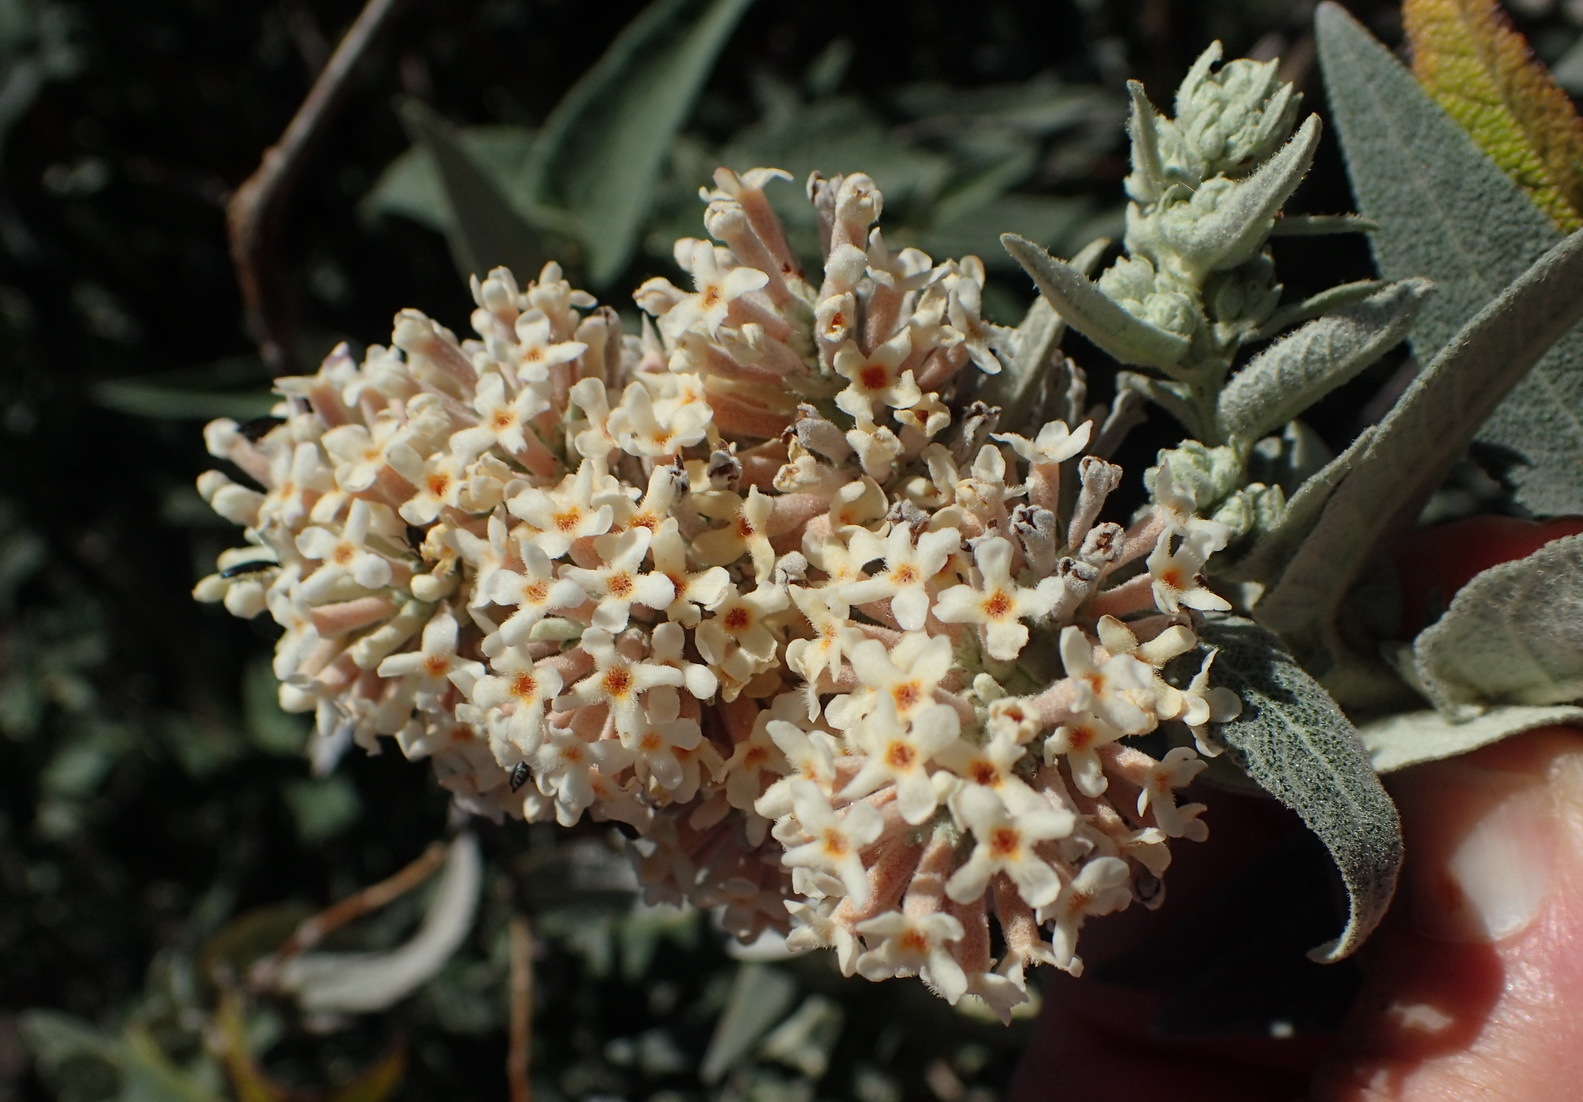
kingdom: Plantae
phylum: Tracheophyta
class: Magnoliopsida
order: Lamiales
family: Scrophulariaceae
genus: Buddleja
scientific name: Buddleja salviifolia
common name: Sagewood
